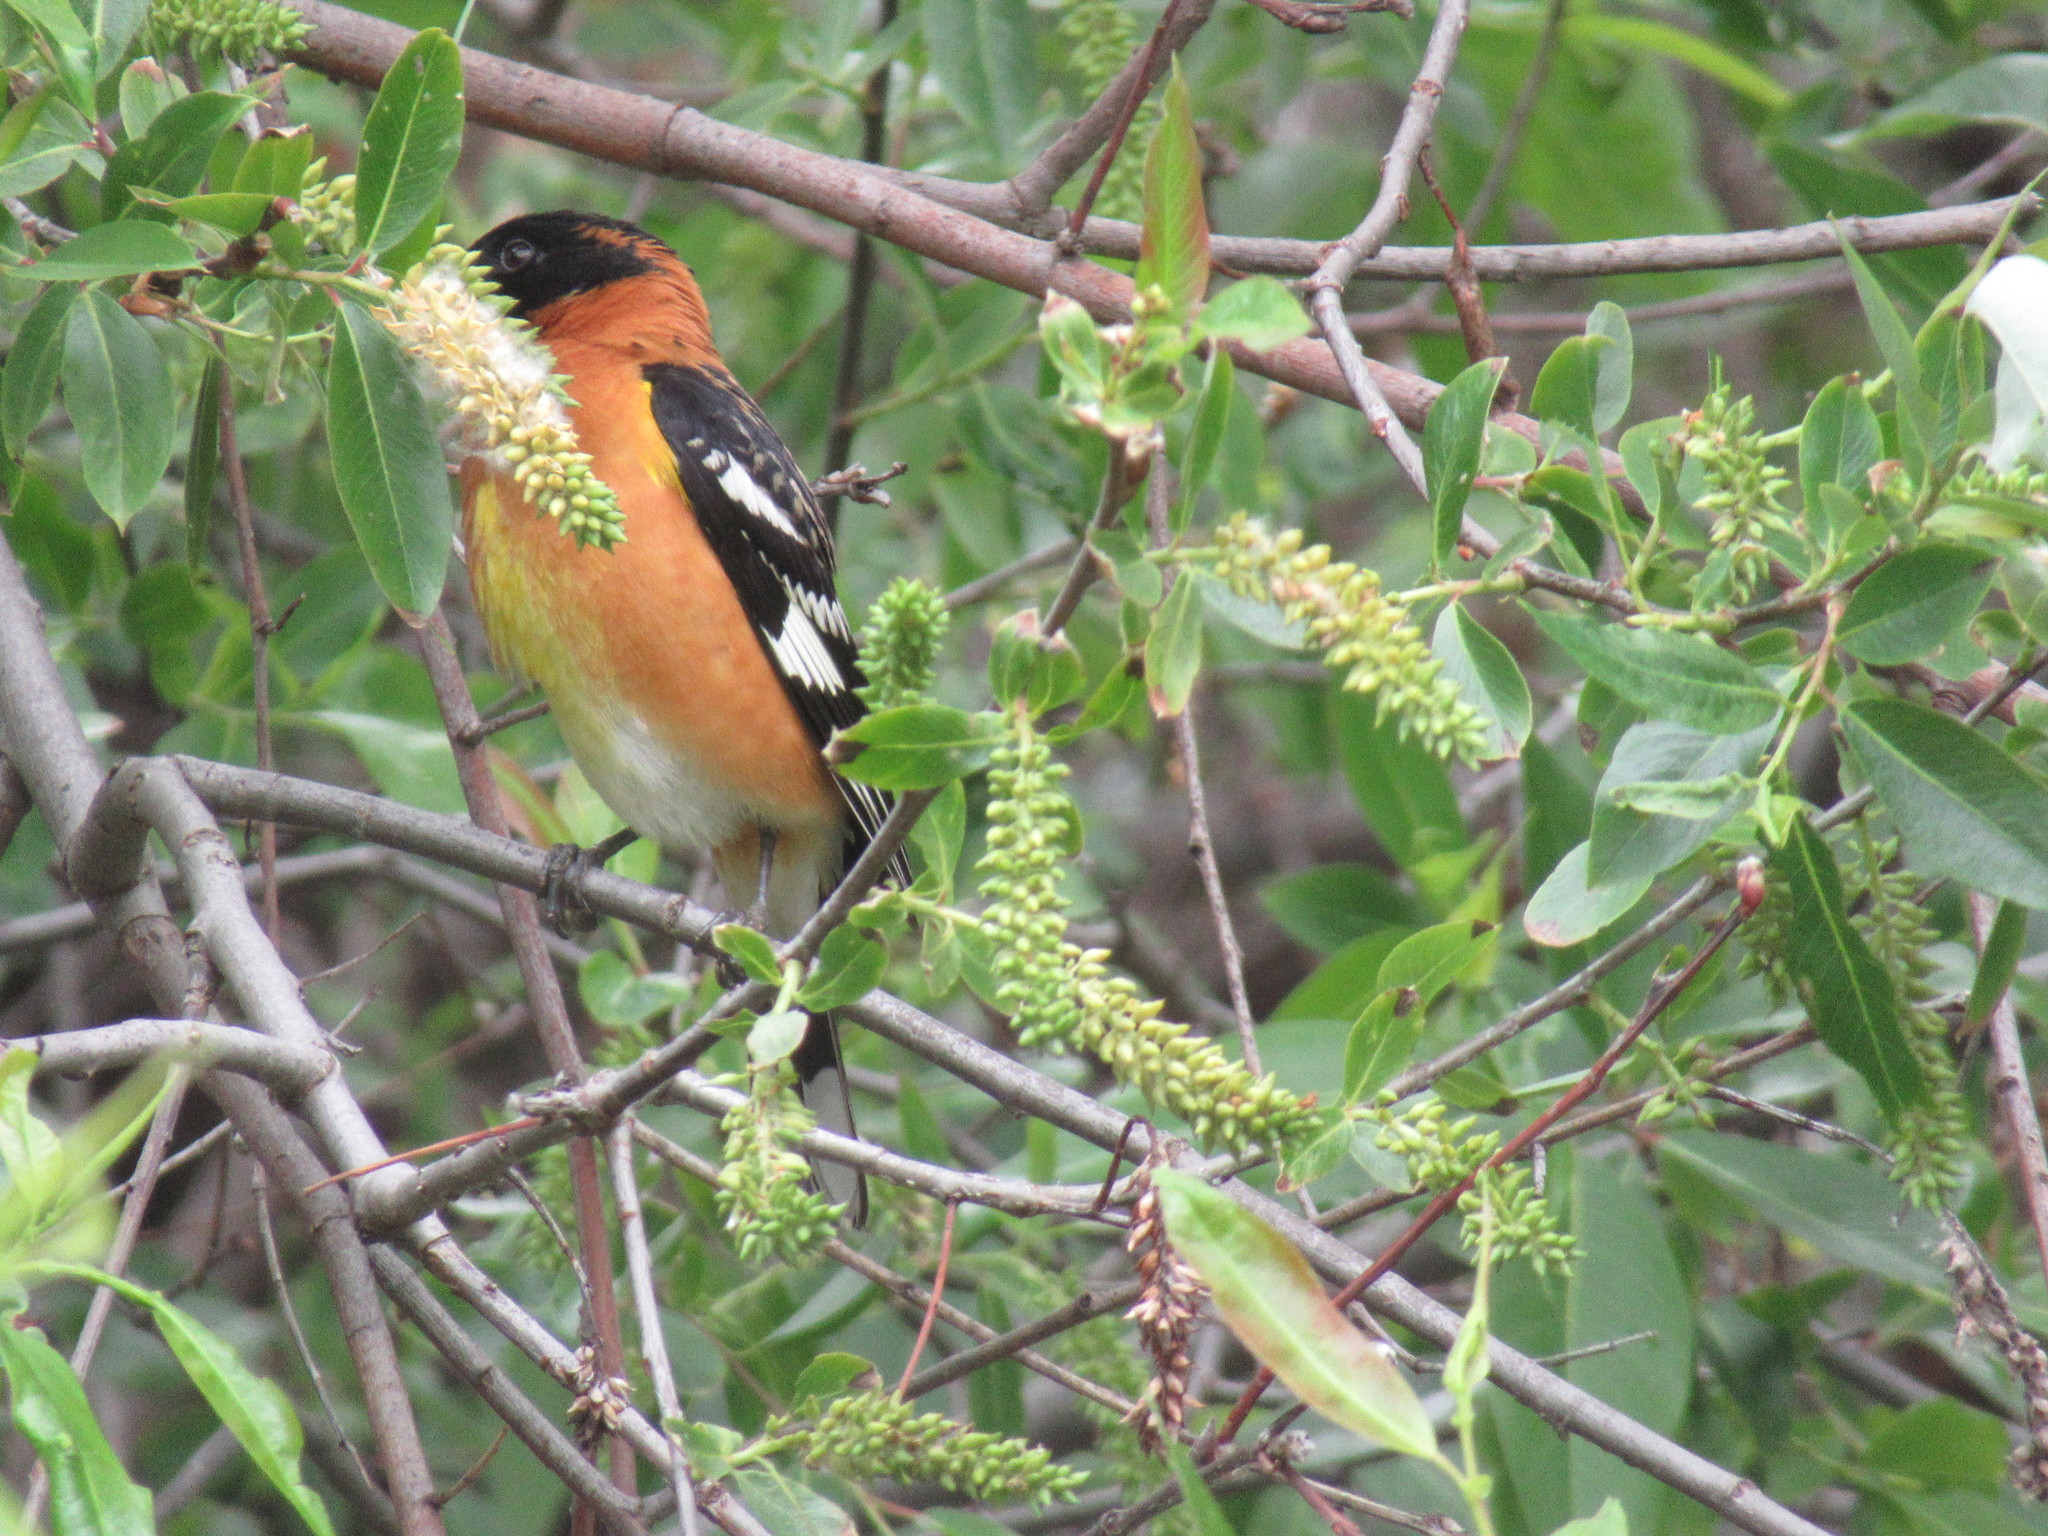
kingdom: Animalia
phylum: Chordata
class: Aves
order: Passeriformes
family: Cardinalidae
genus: Pheucticus
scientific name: Pheucticus melanocephalus
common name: Black-headed grosbeak
